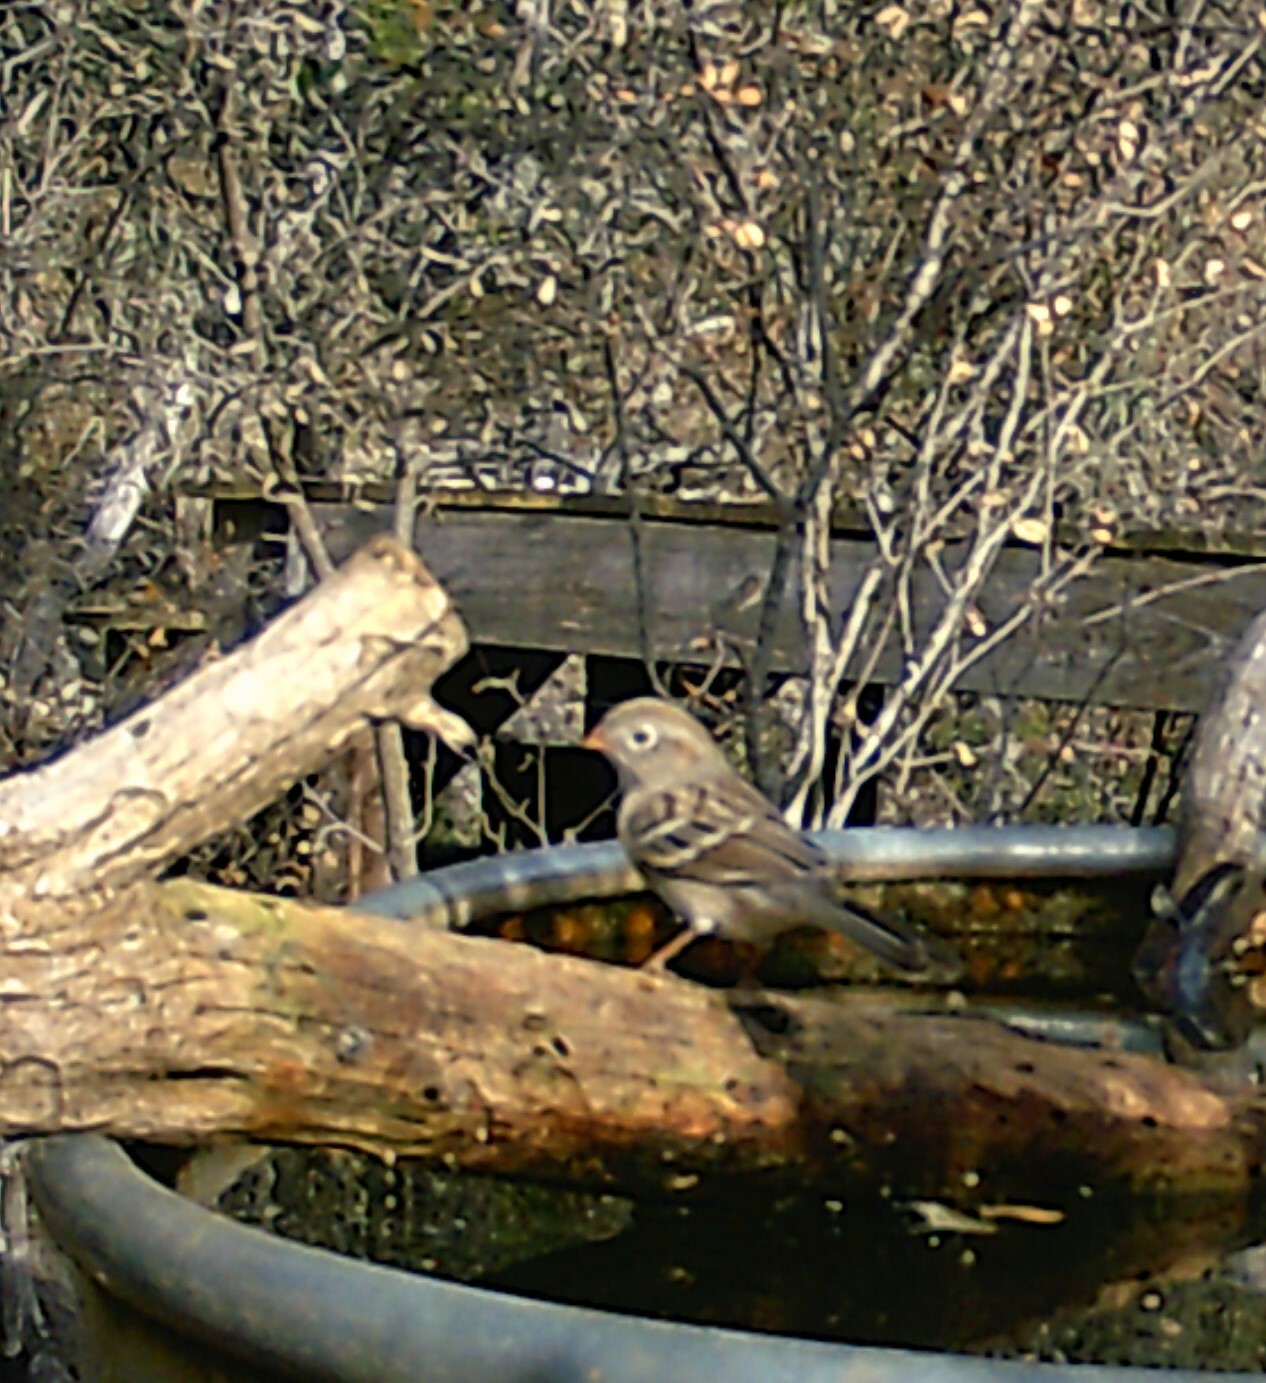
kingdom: Animalia
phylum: Chordata
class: Aves
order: Passeriformes
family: Passerellidae
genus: Spizella
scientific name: Spizella pusilla
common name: Field sparrow
